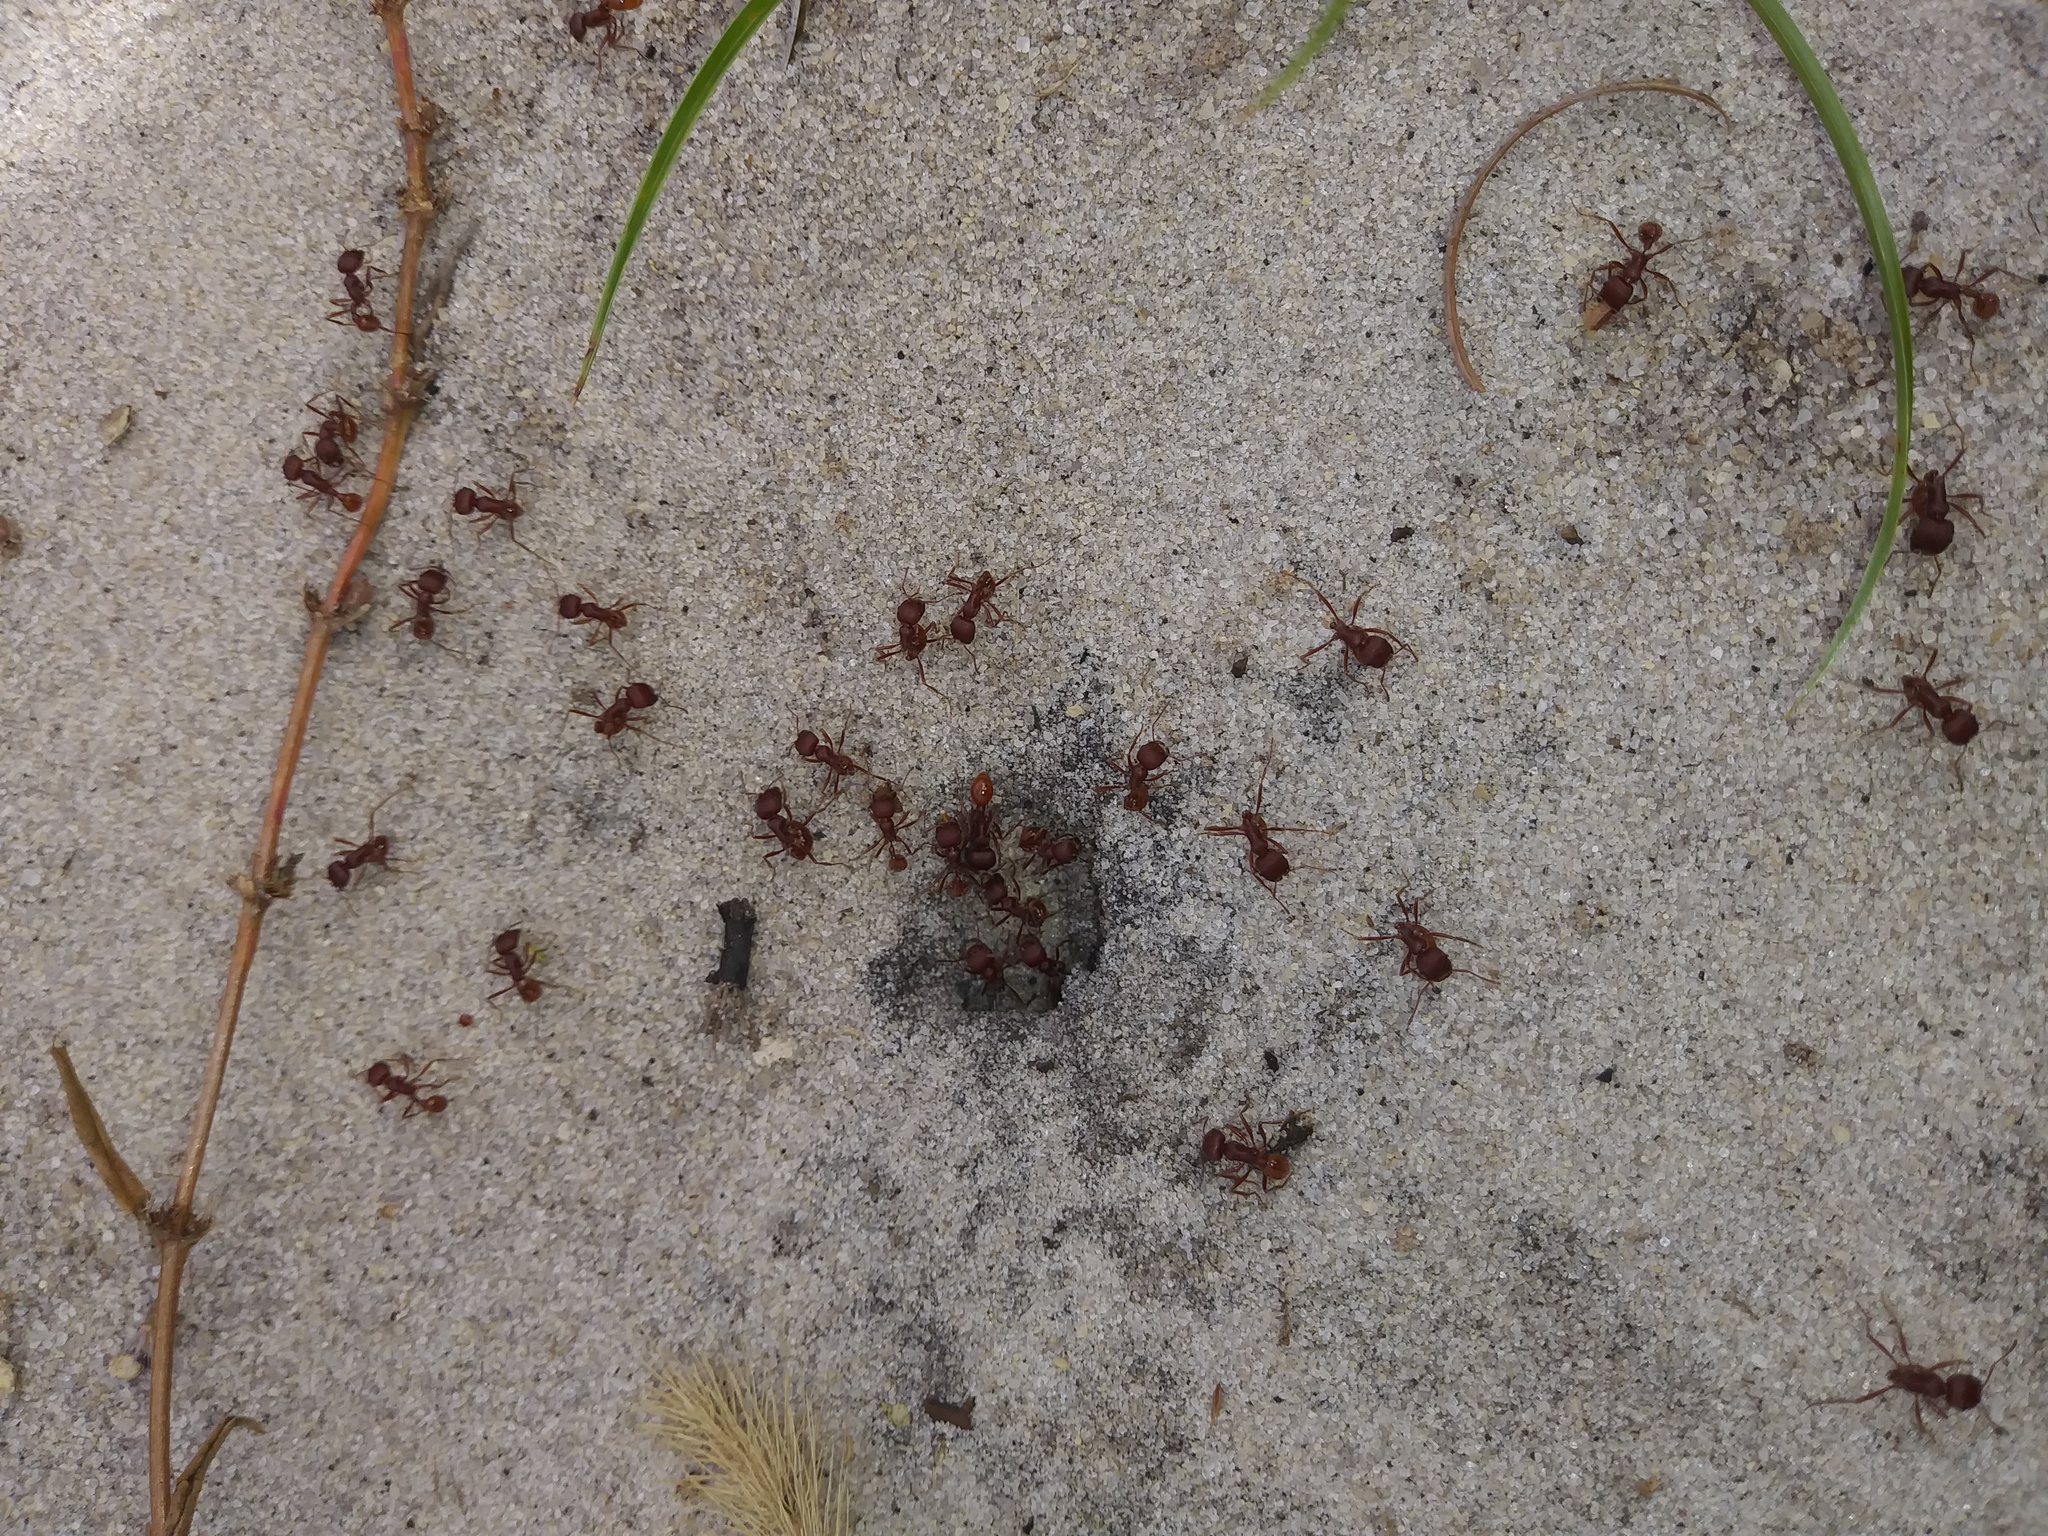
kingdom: Animalia
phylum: Arthropoda
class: Insecta
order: Hymenoptera
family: Formicidae
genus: Pogonomyrmex
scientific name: Pogonomyrmex badius
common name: Florida harvester ant
